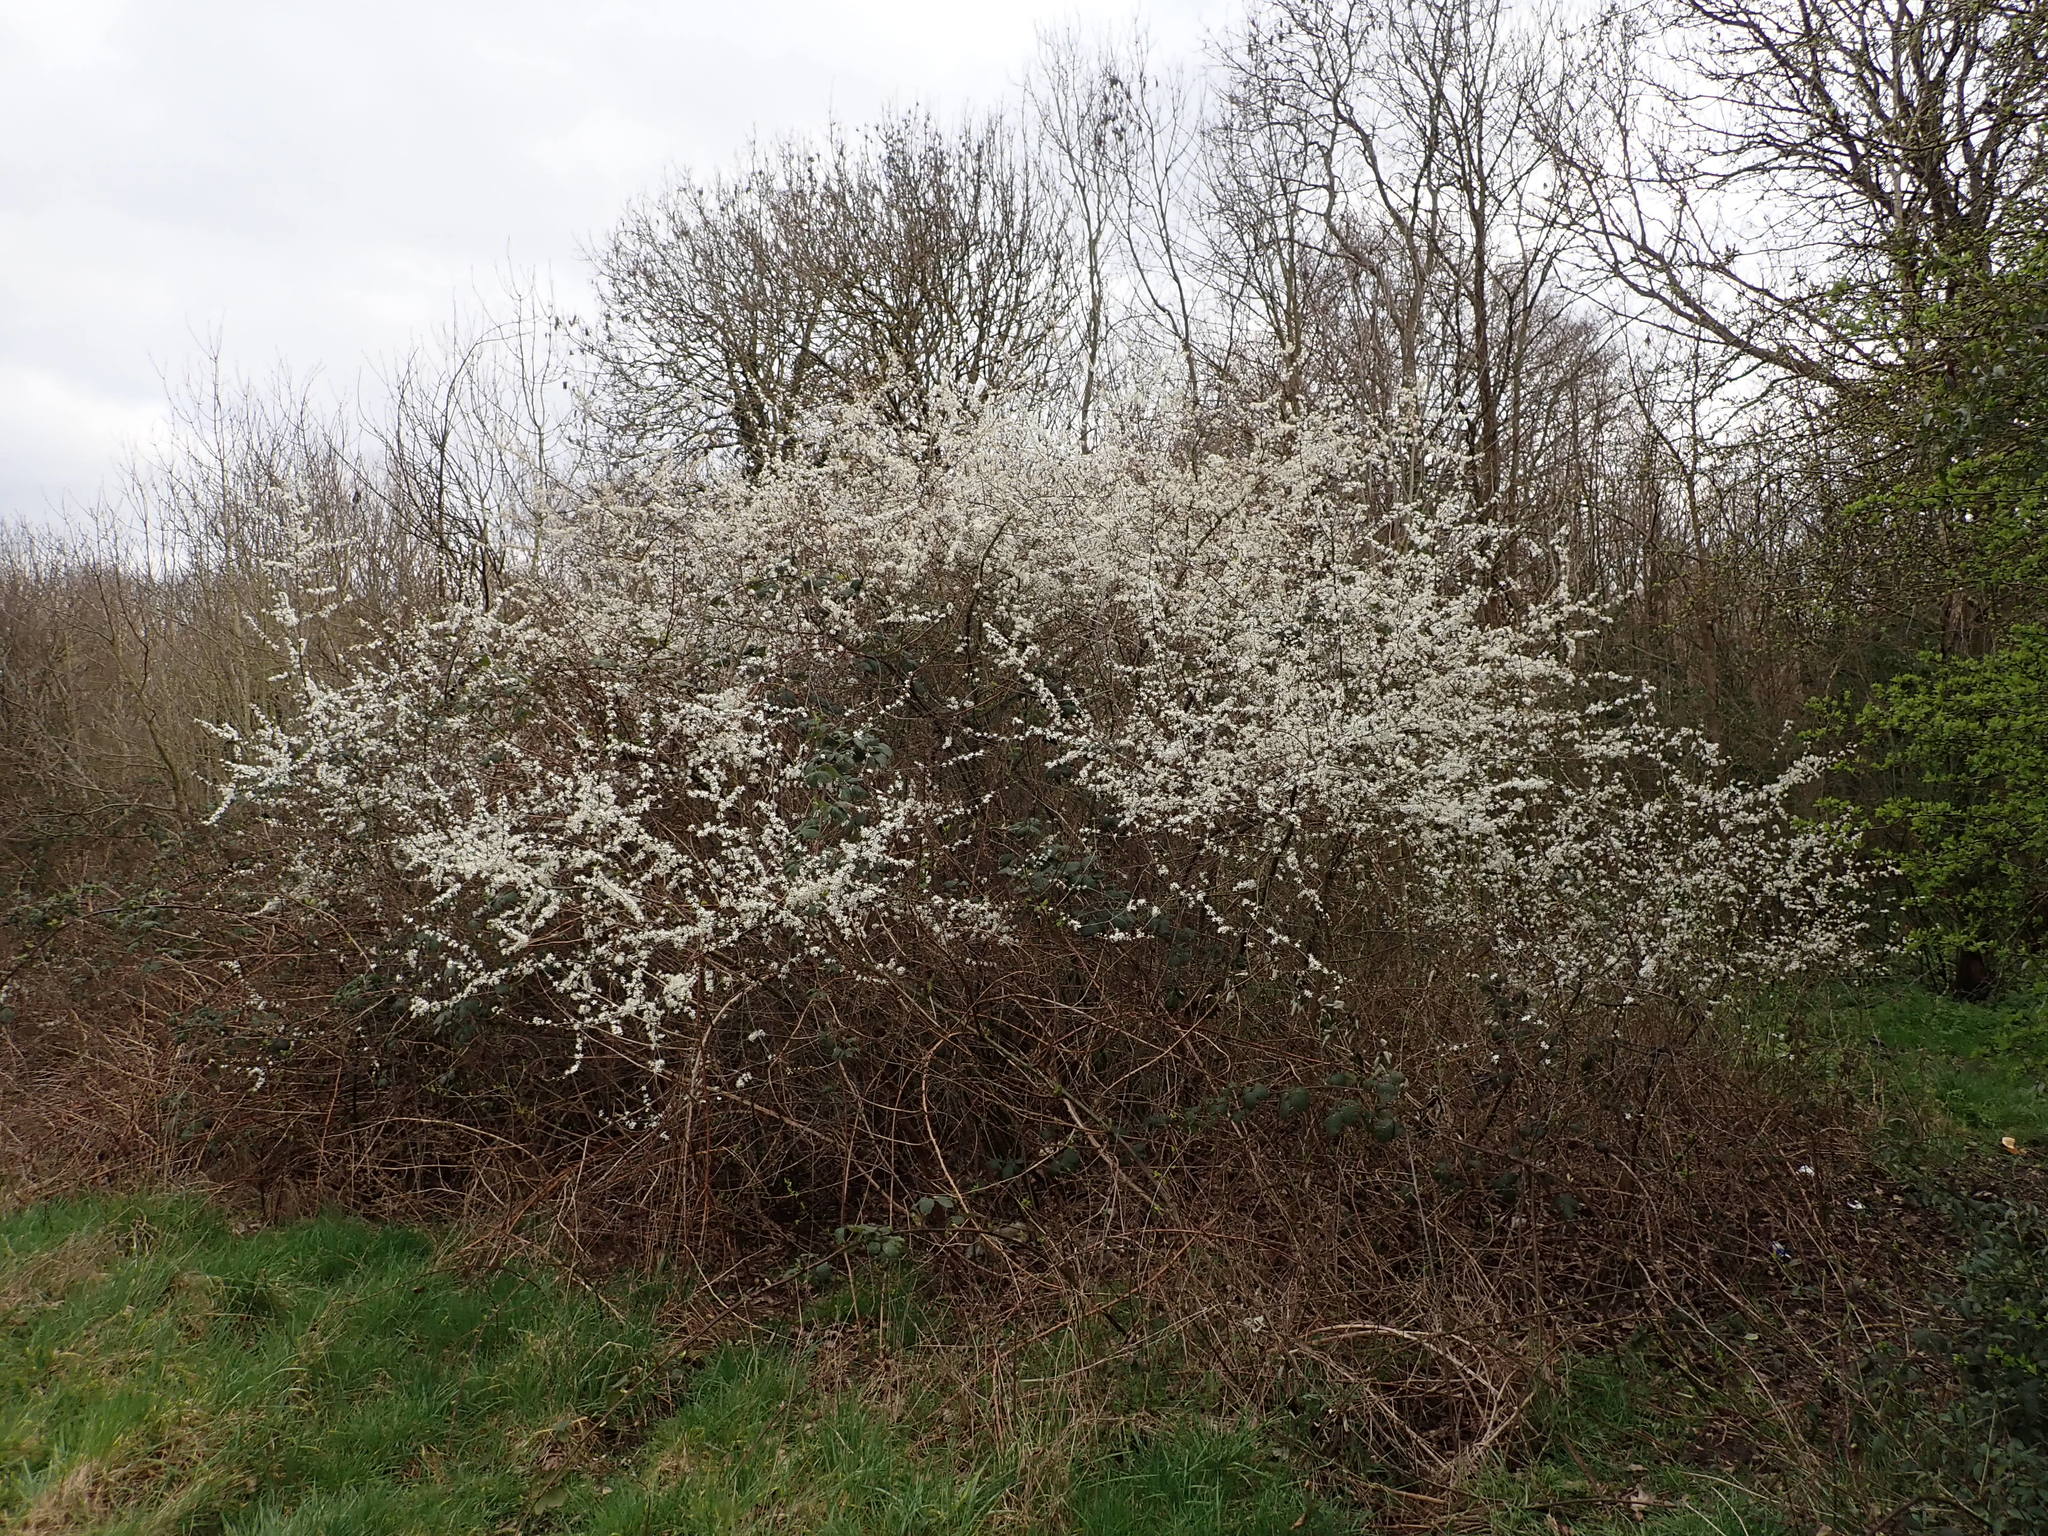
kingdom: Plantae
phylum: Tracheophyta
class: Magnoliopsida
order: Rosales
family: Rosaceae
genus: Prunus
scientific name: Prunus spinosa
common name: Blackthorn
